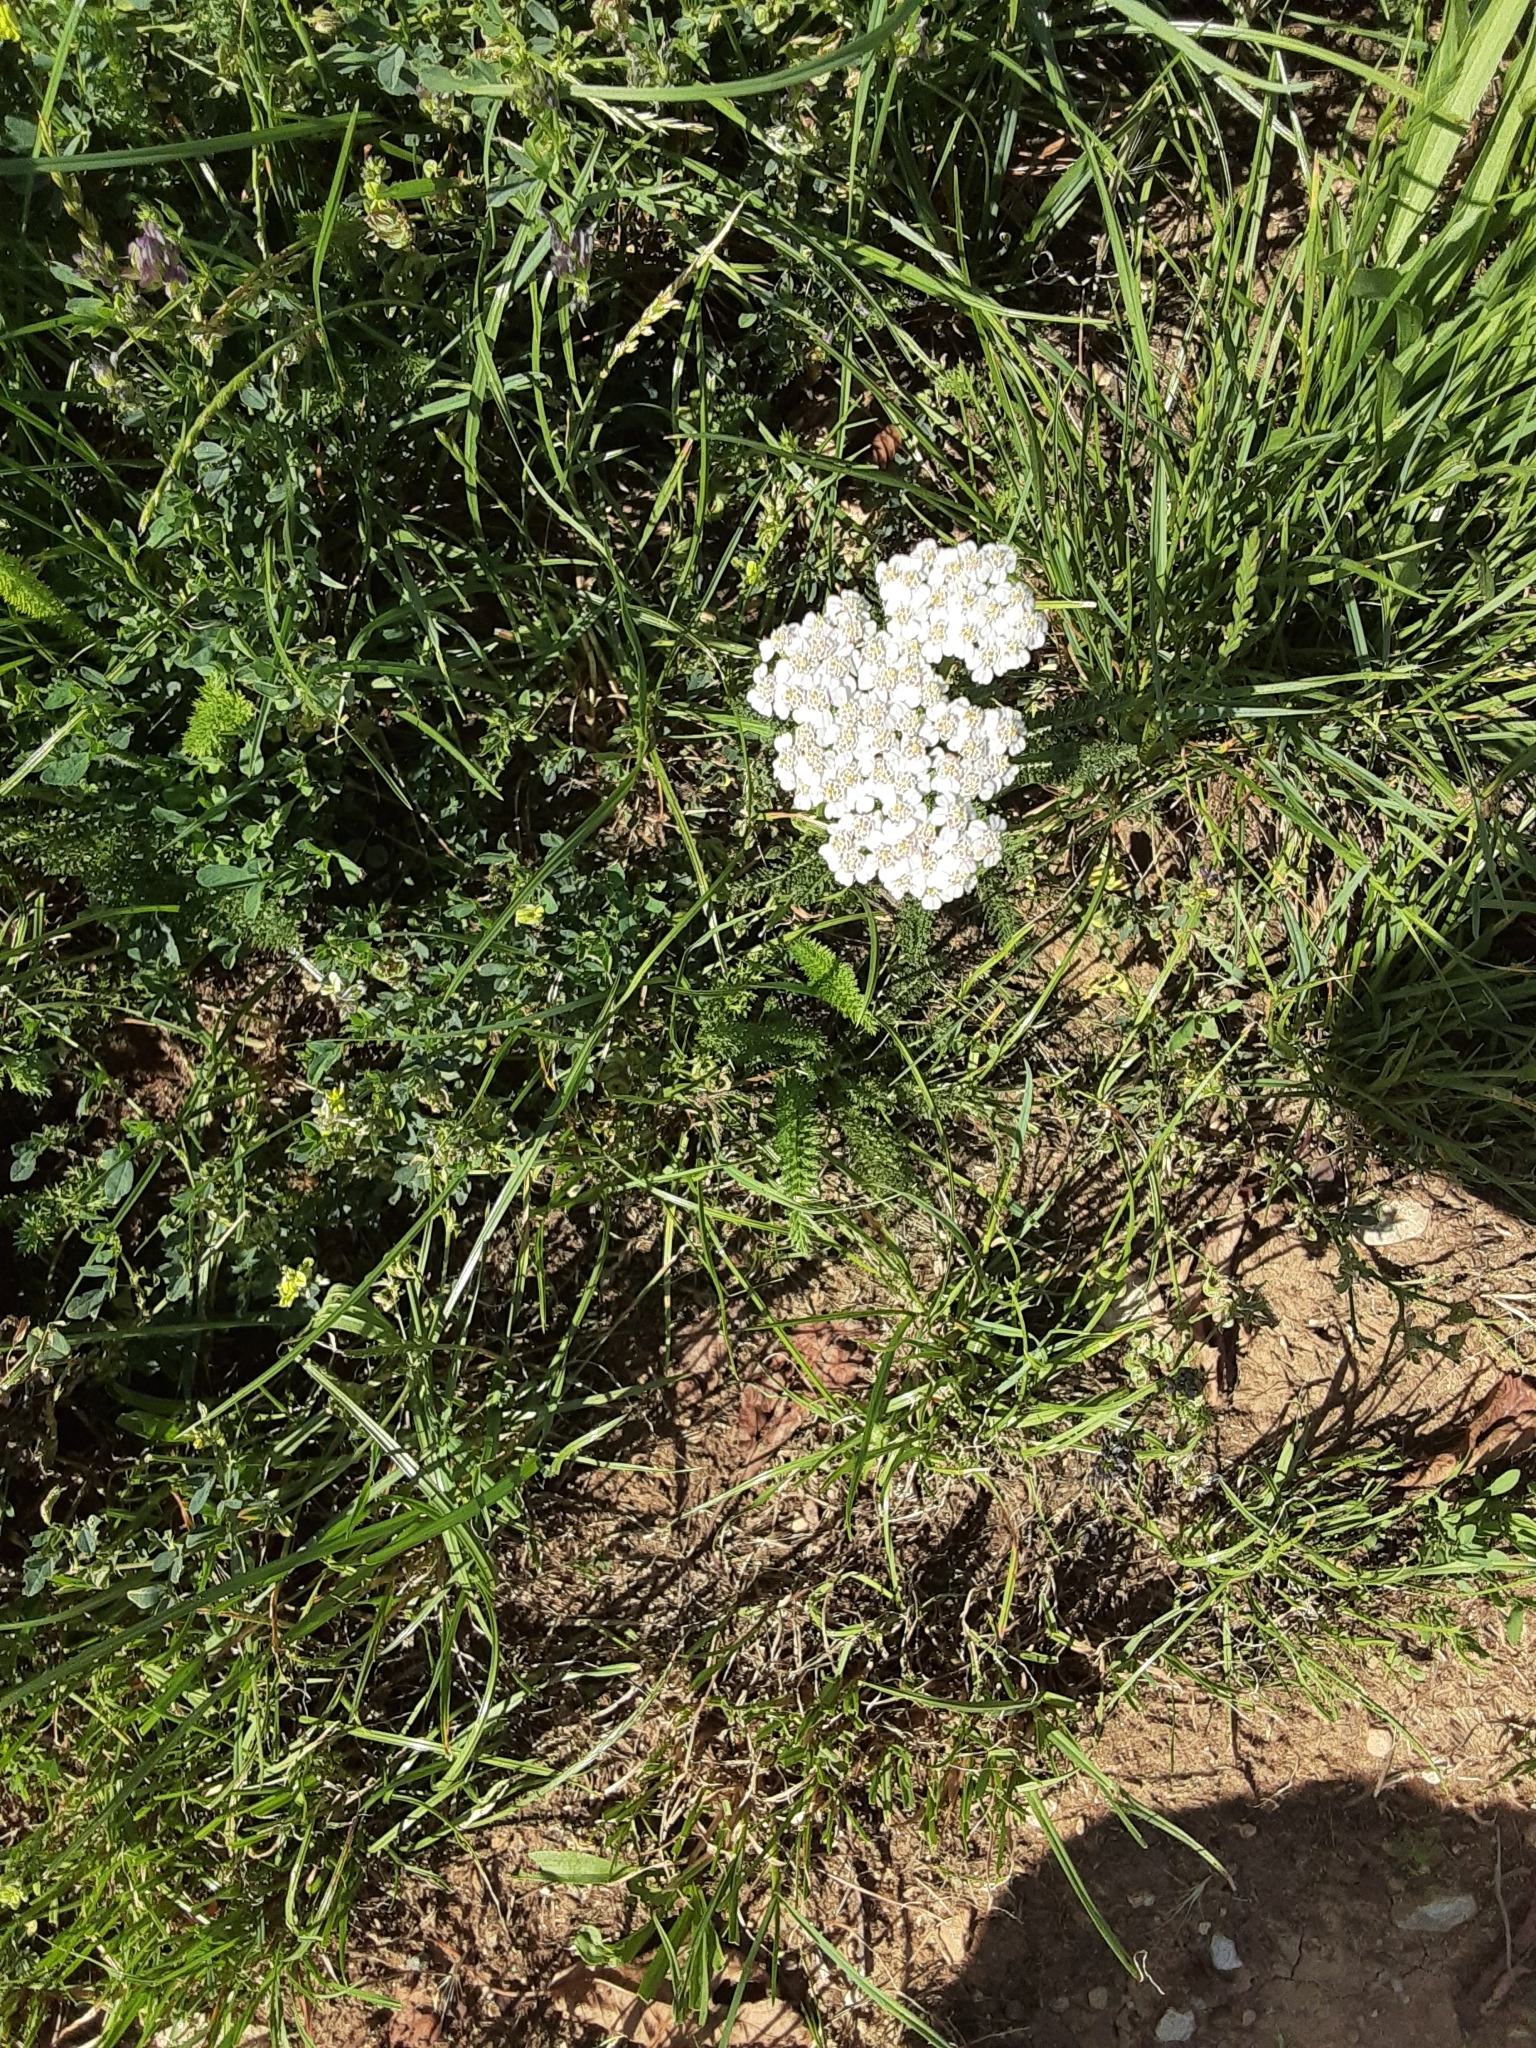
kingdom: Plantae
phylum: Tracheophyta
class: Magnoliopsida
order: Asterales
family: Asteraceae
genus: Achillea
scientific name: Achillea millefolium
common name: Yarrow
